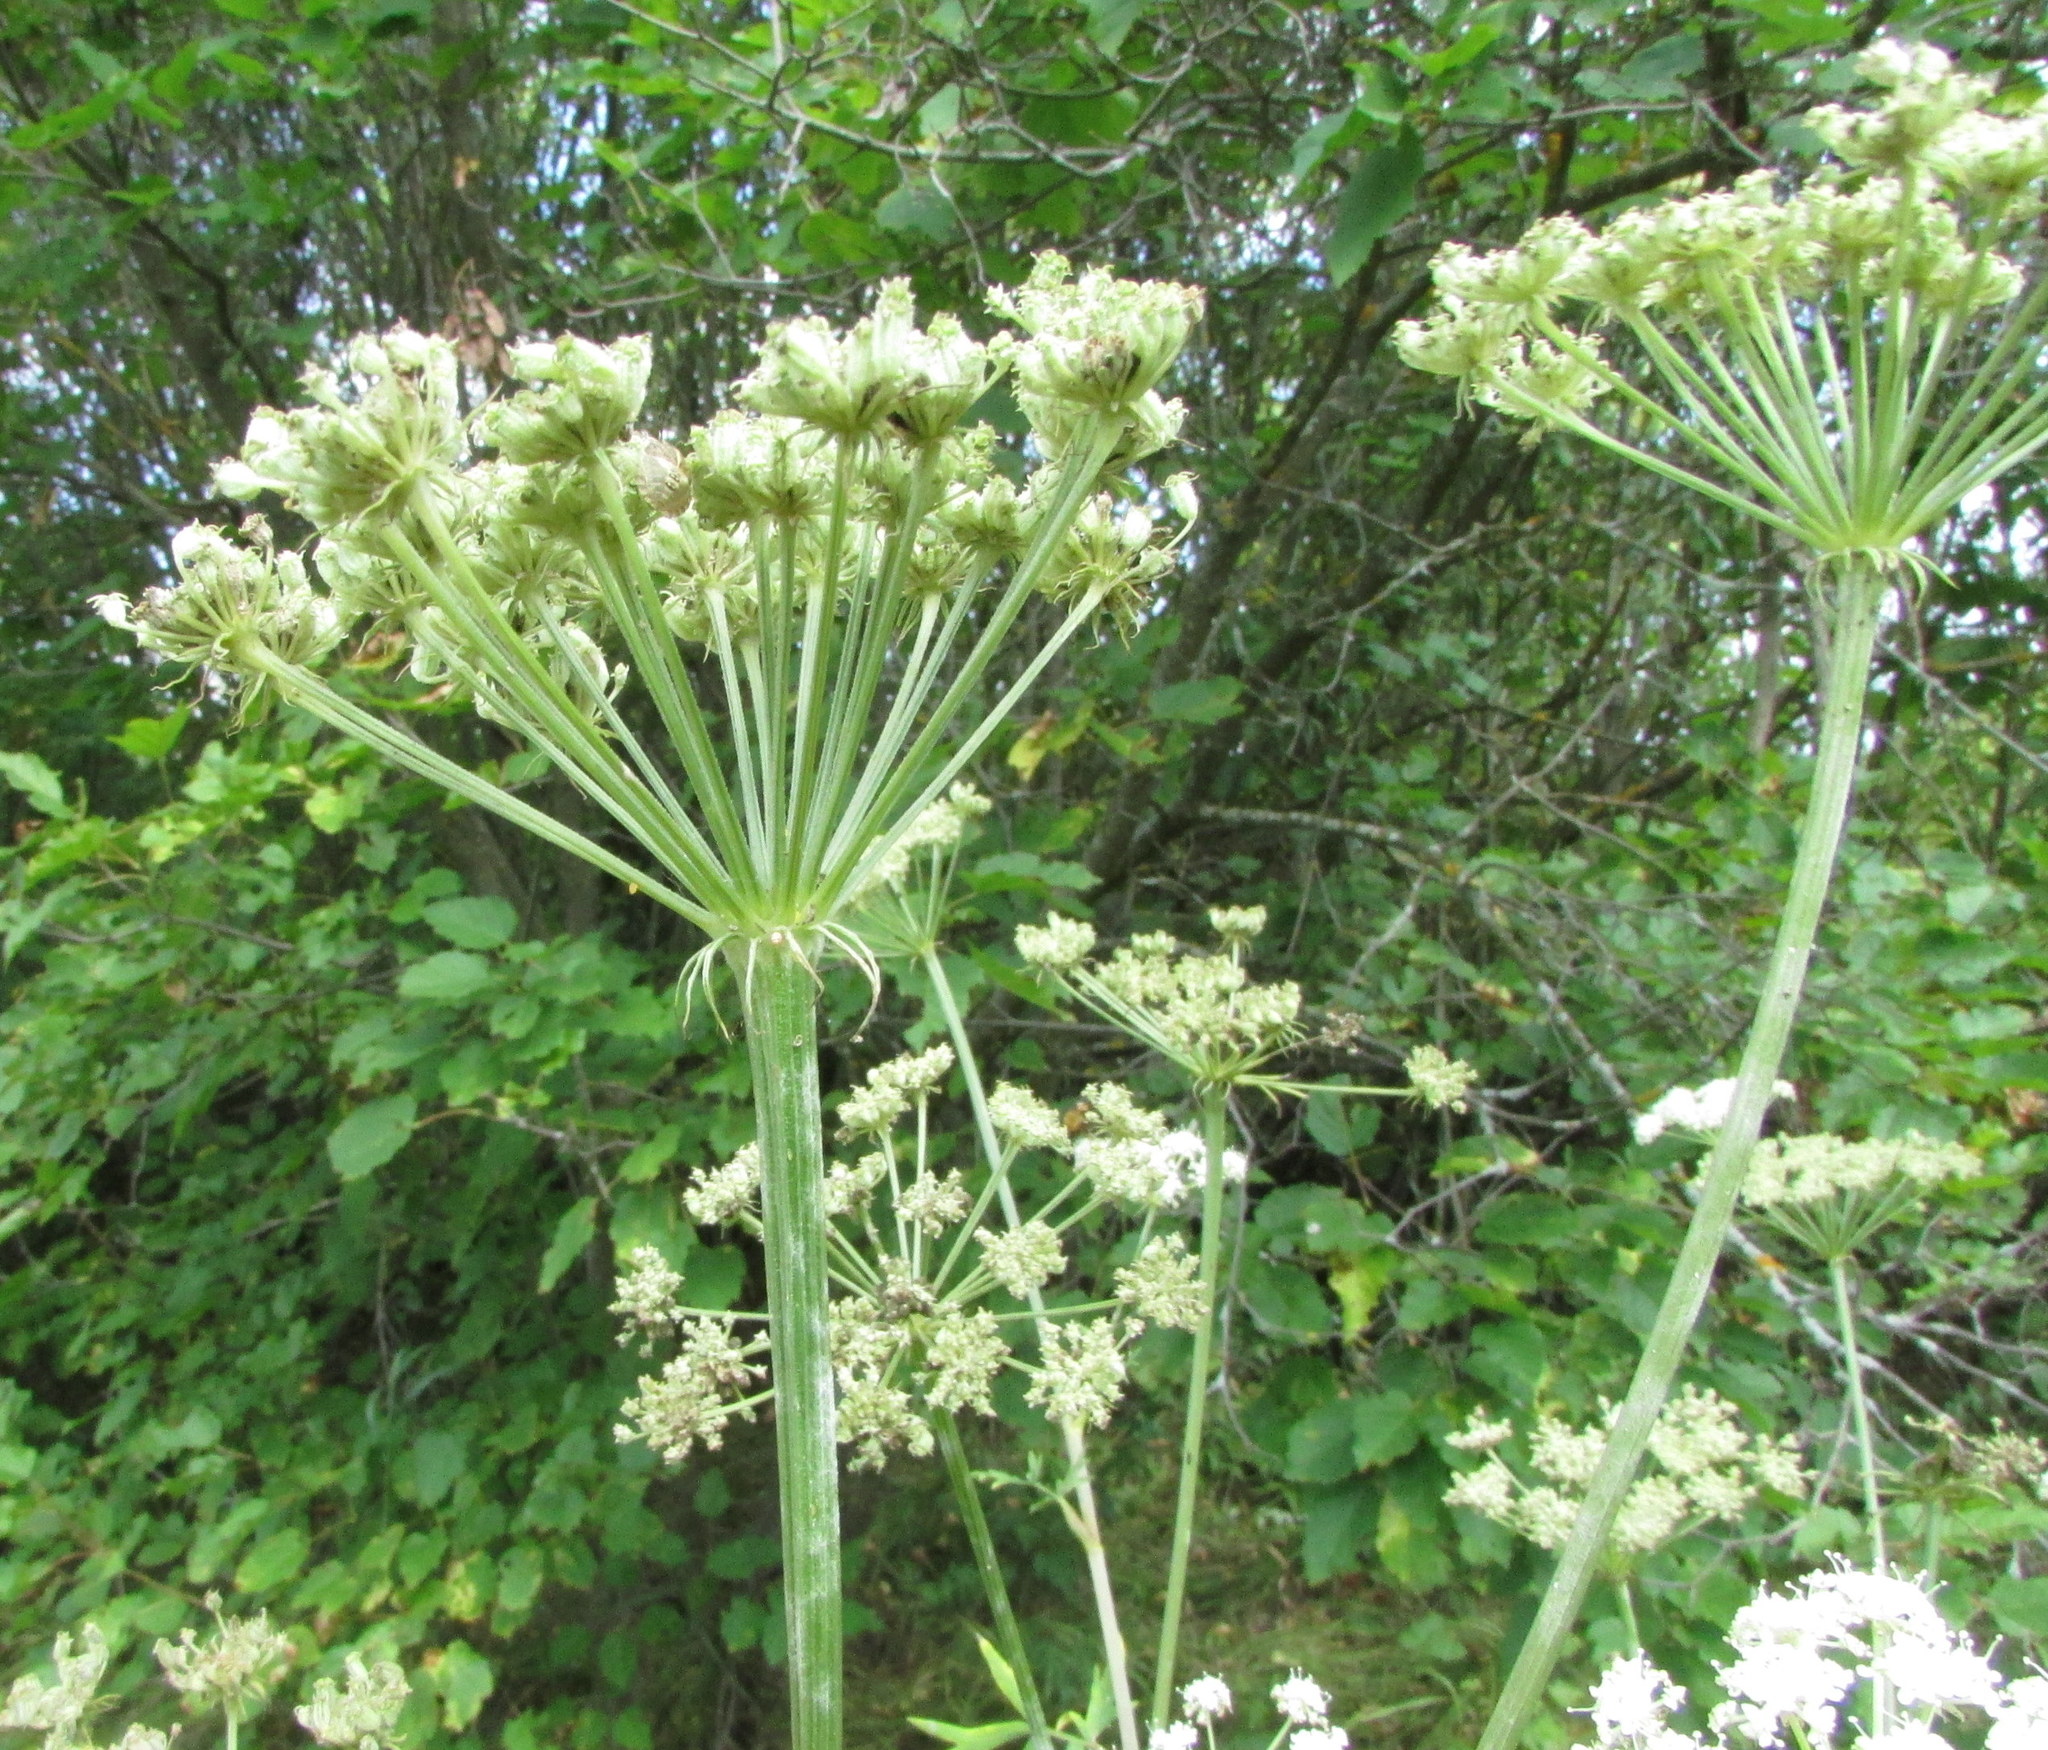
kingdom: Plantae
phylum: Tracheophyta
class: Magnoliopsida
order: Apiales
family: Apiaceae
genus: Seseli
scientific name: Seseli libanotis
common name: Mooncarrot
